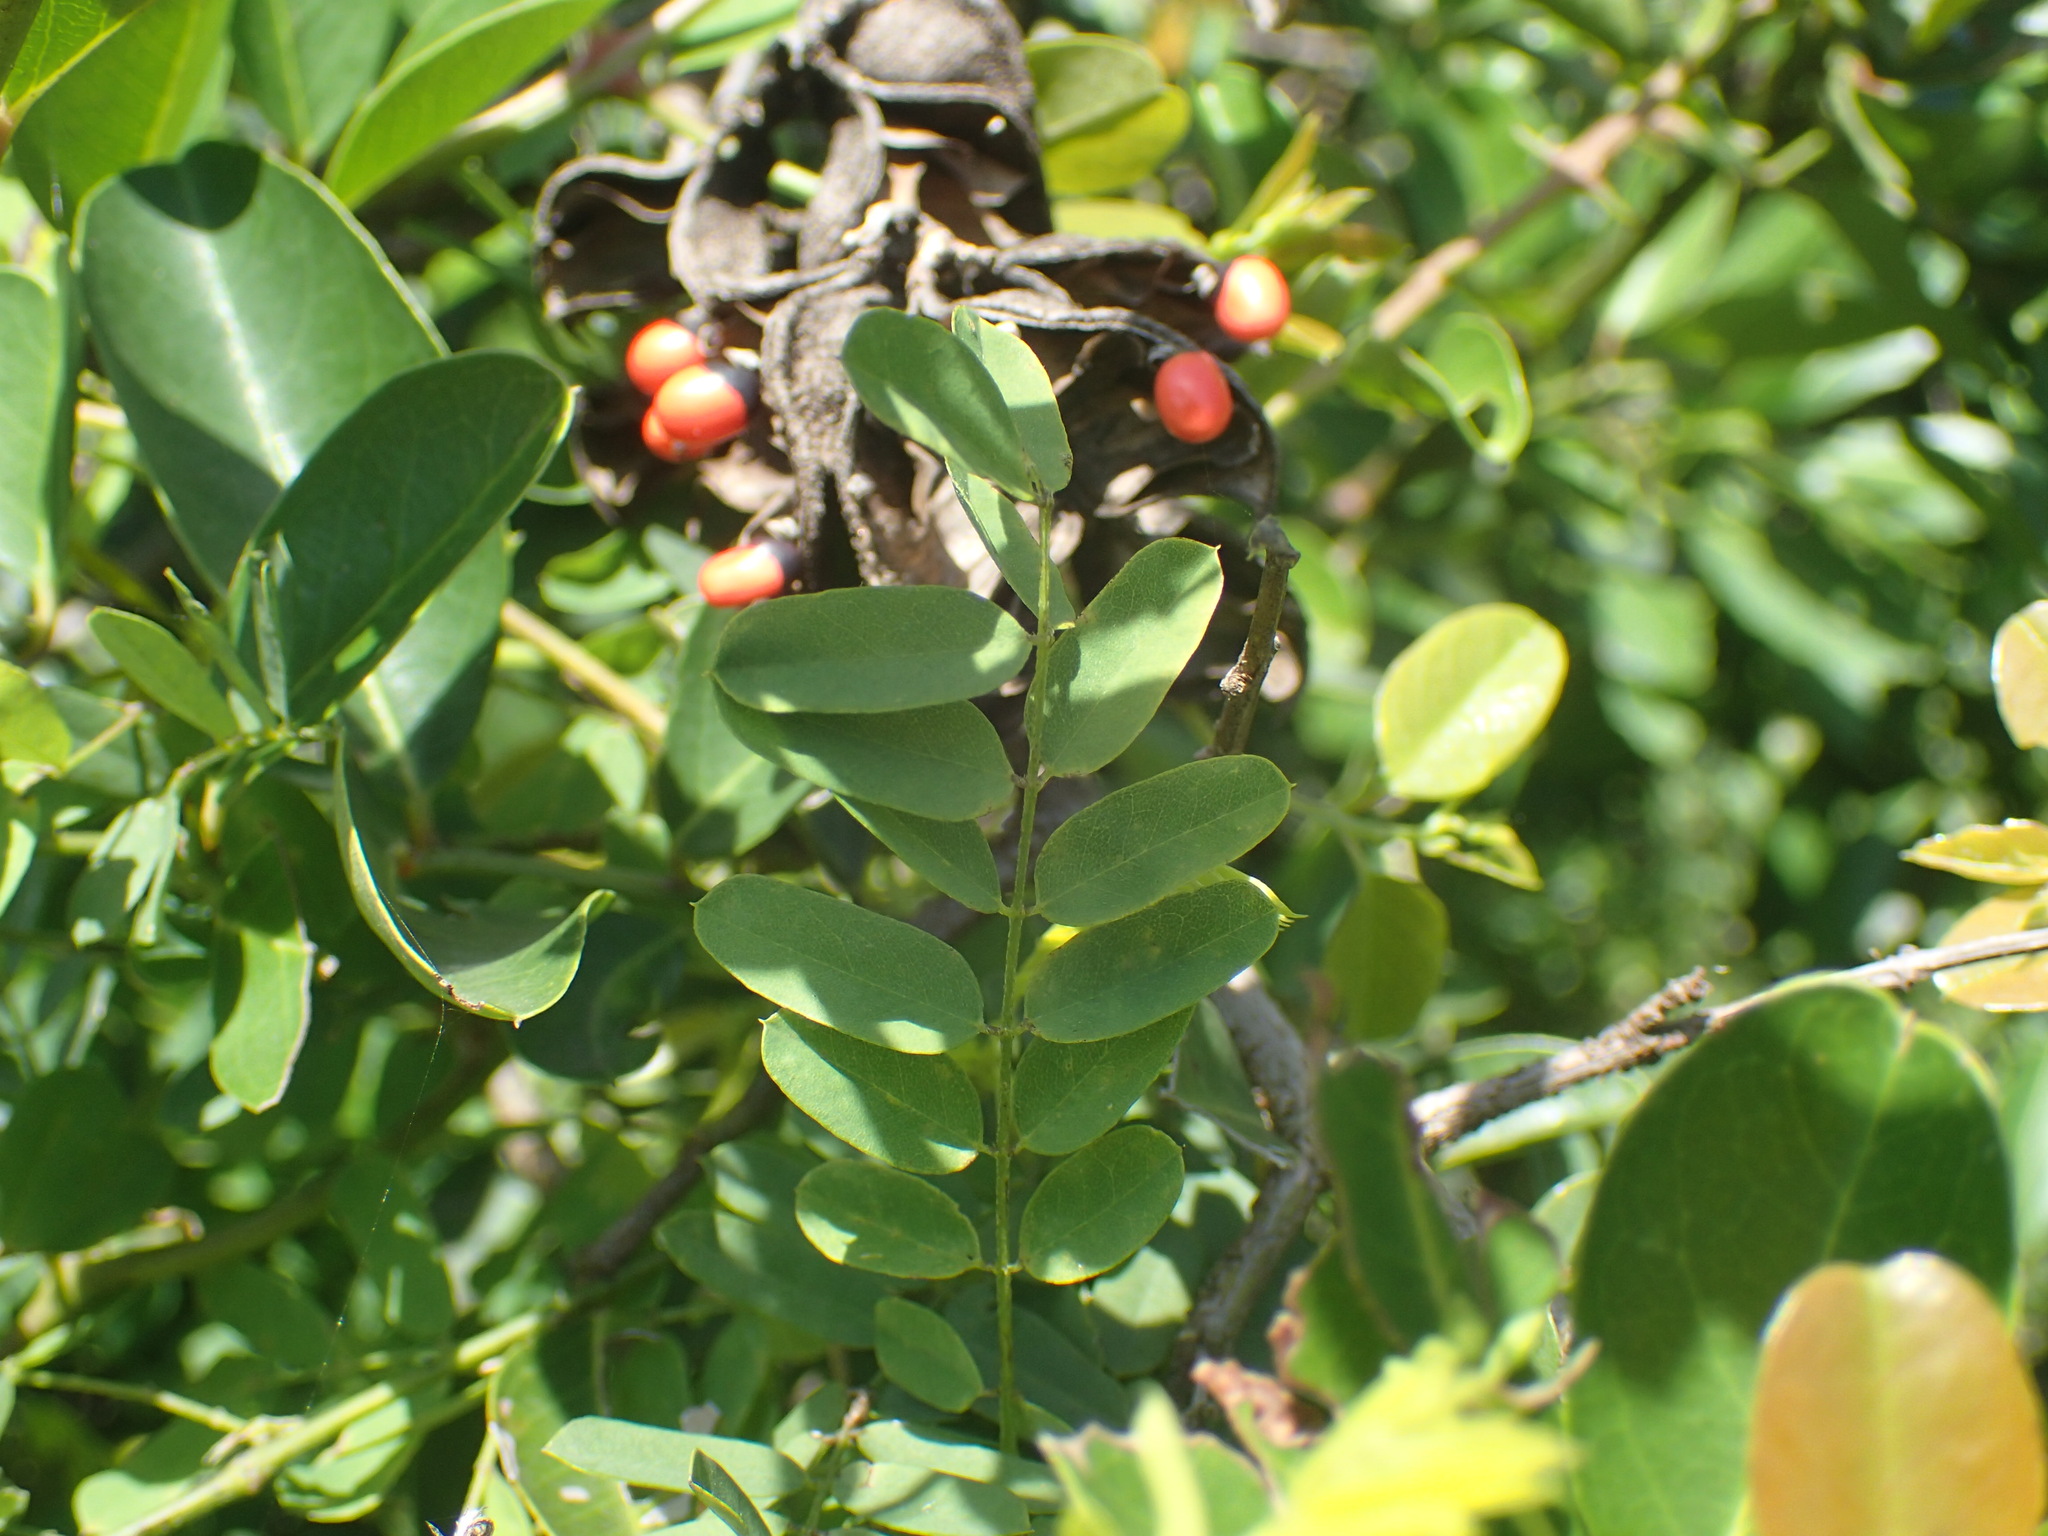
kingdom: Plantae
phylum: Tracheophyta
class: Magnoliopsida
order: Fabales
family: Fabaceae
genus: Abrus
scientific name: Abrus precatorius
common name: Rosarypea
